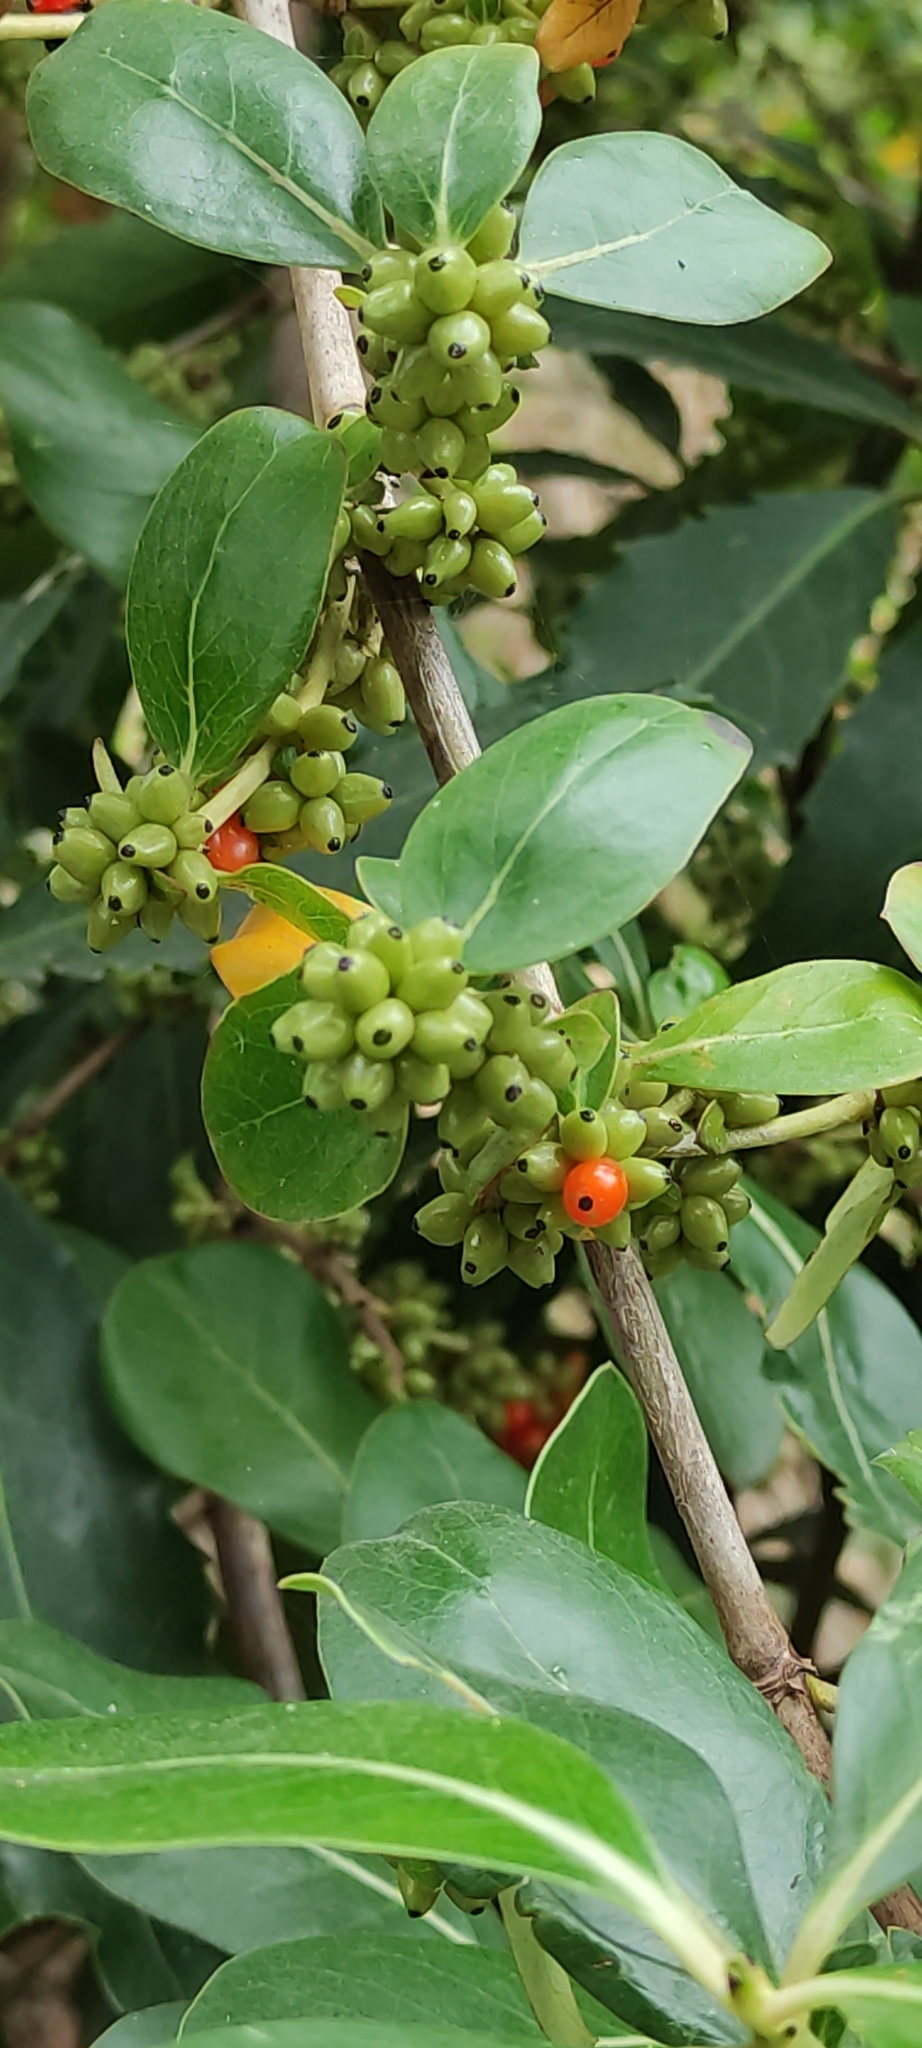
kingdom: Plantae
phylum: Tracheophyta
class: Magnoliopsida
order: Gentianales
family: Rubiaceae
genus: Coprosma
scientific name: Coprosma robusta
